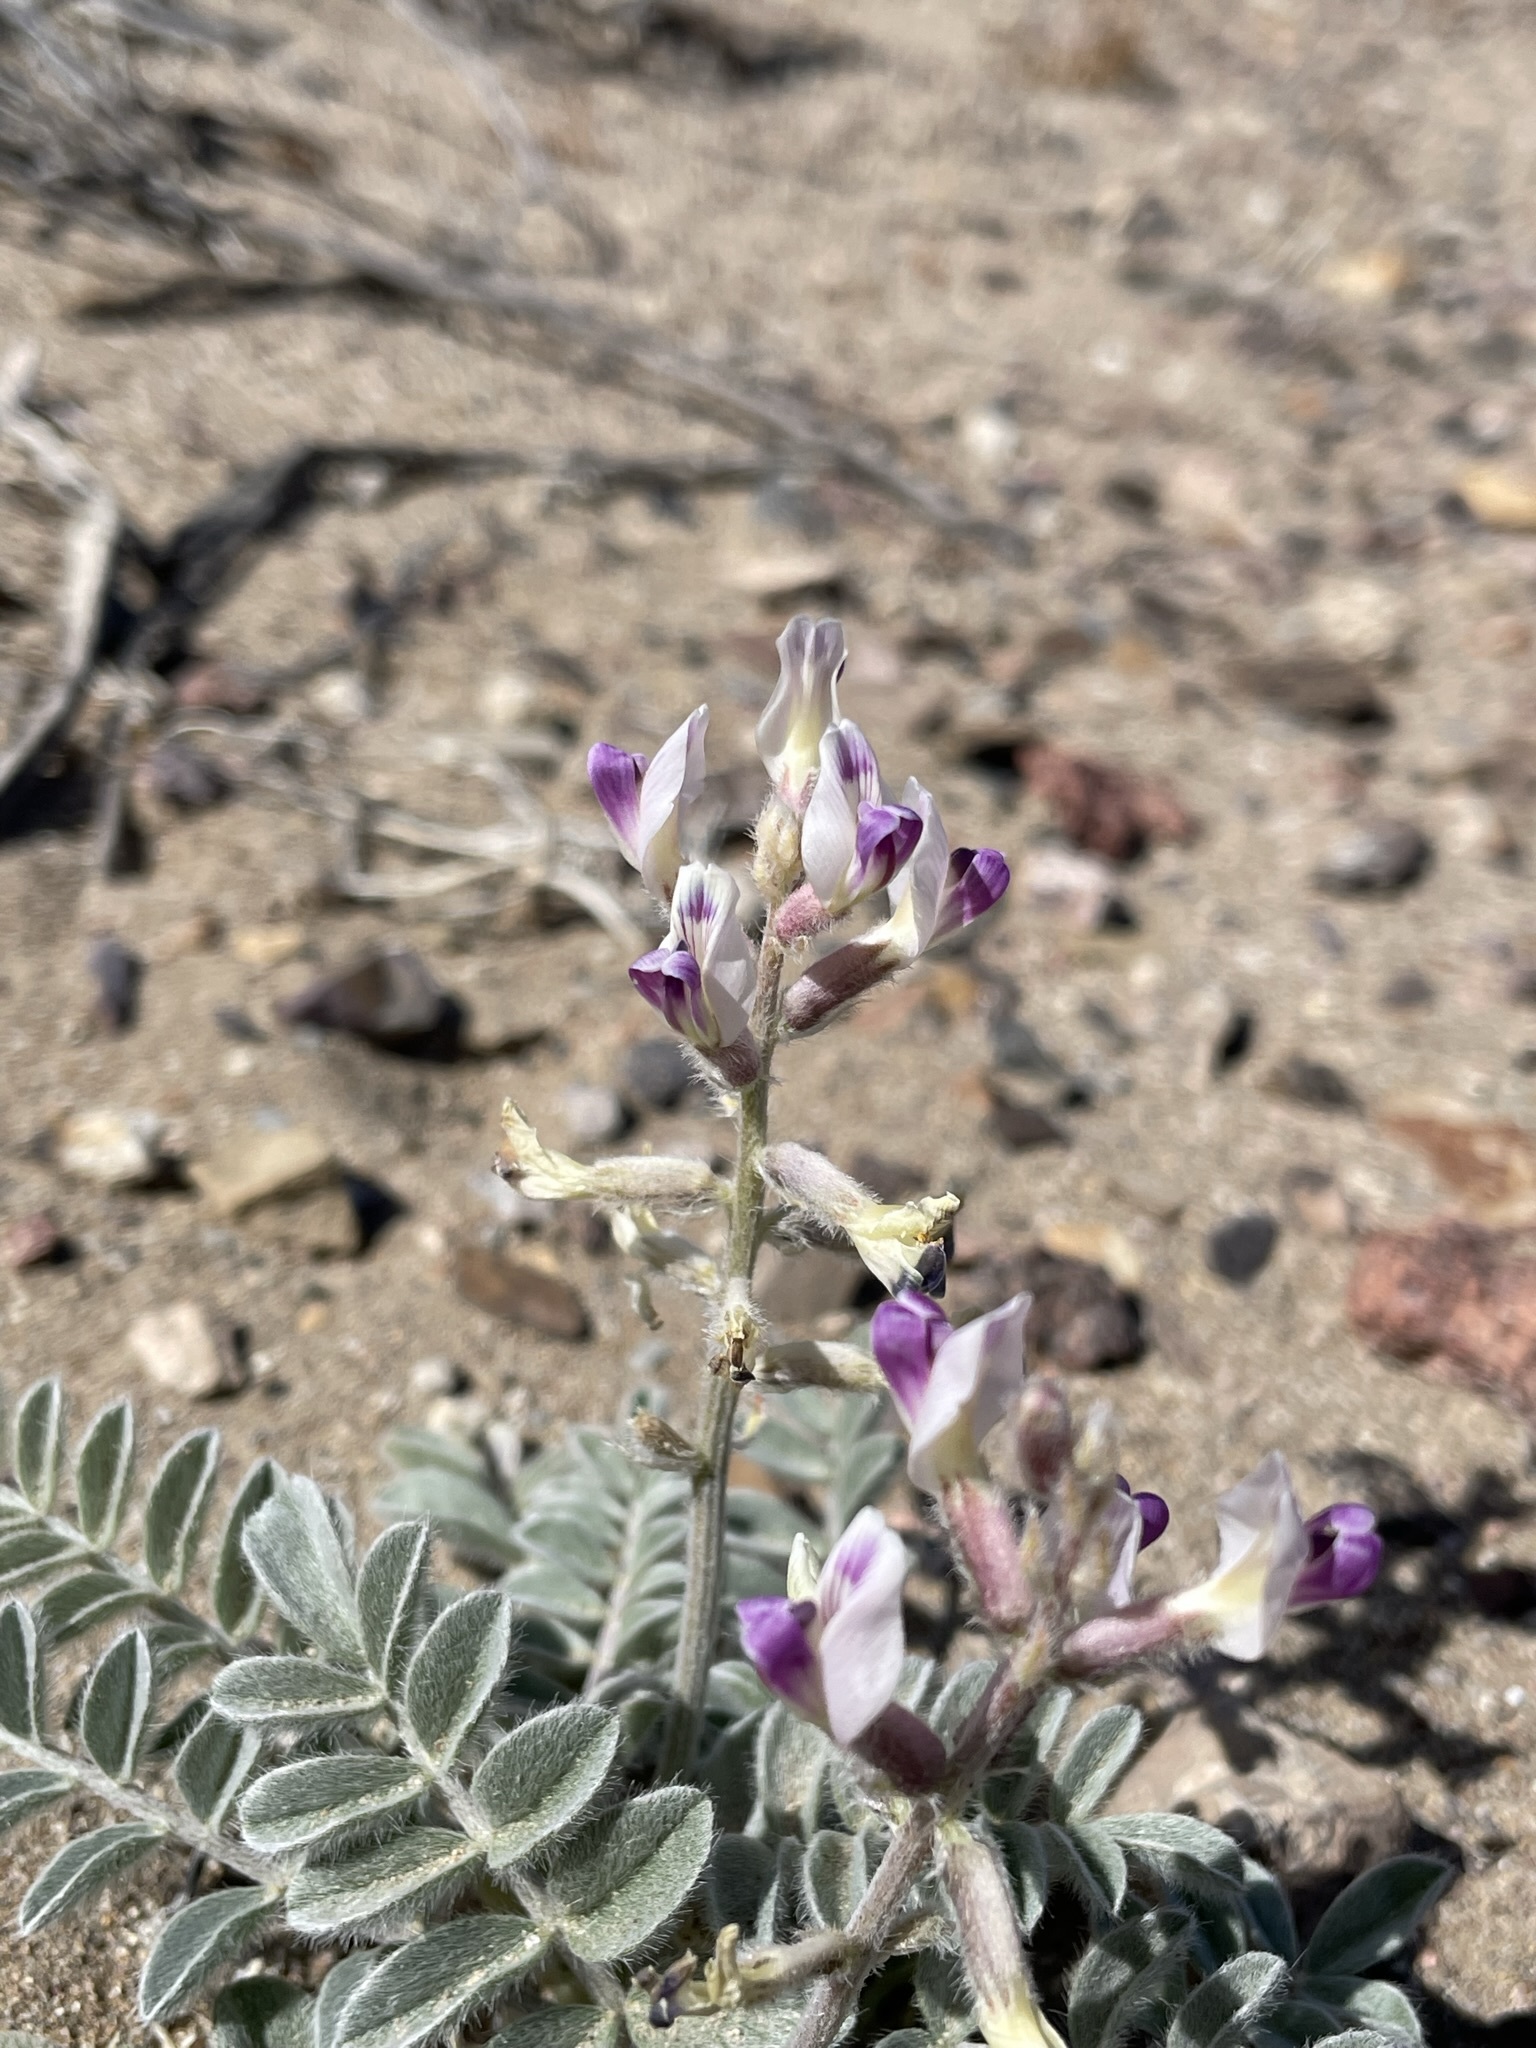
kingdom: Plantae
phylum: Tracheophyta
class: Magnoliopsida
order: Fabales
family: Fabaceae
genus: Astragalus
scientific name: Astragalus layneae
